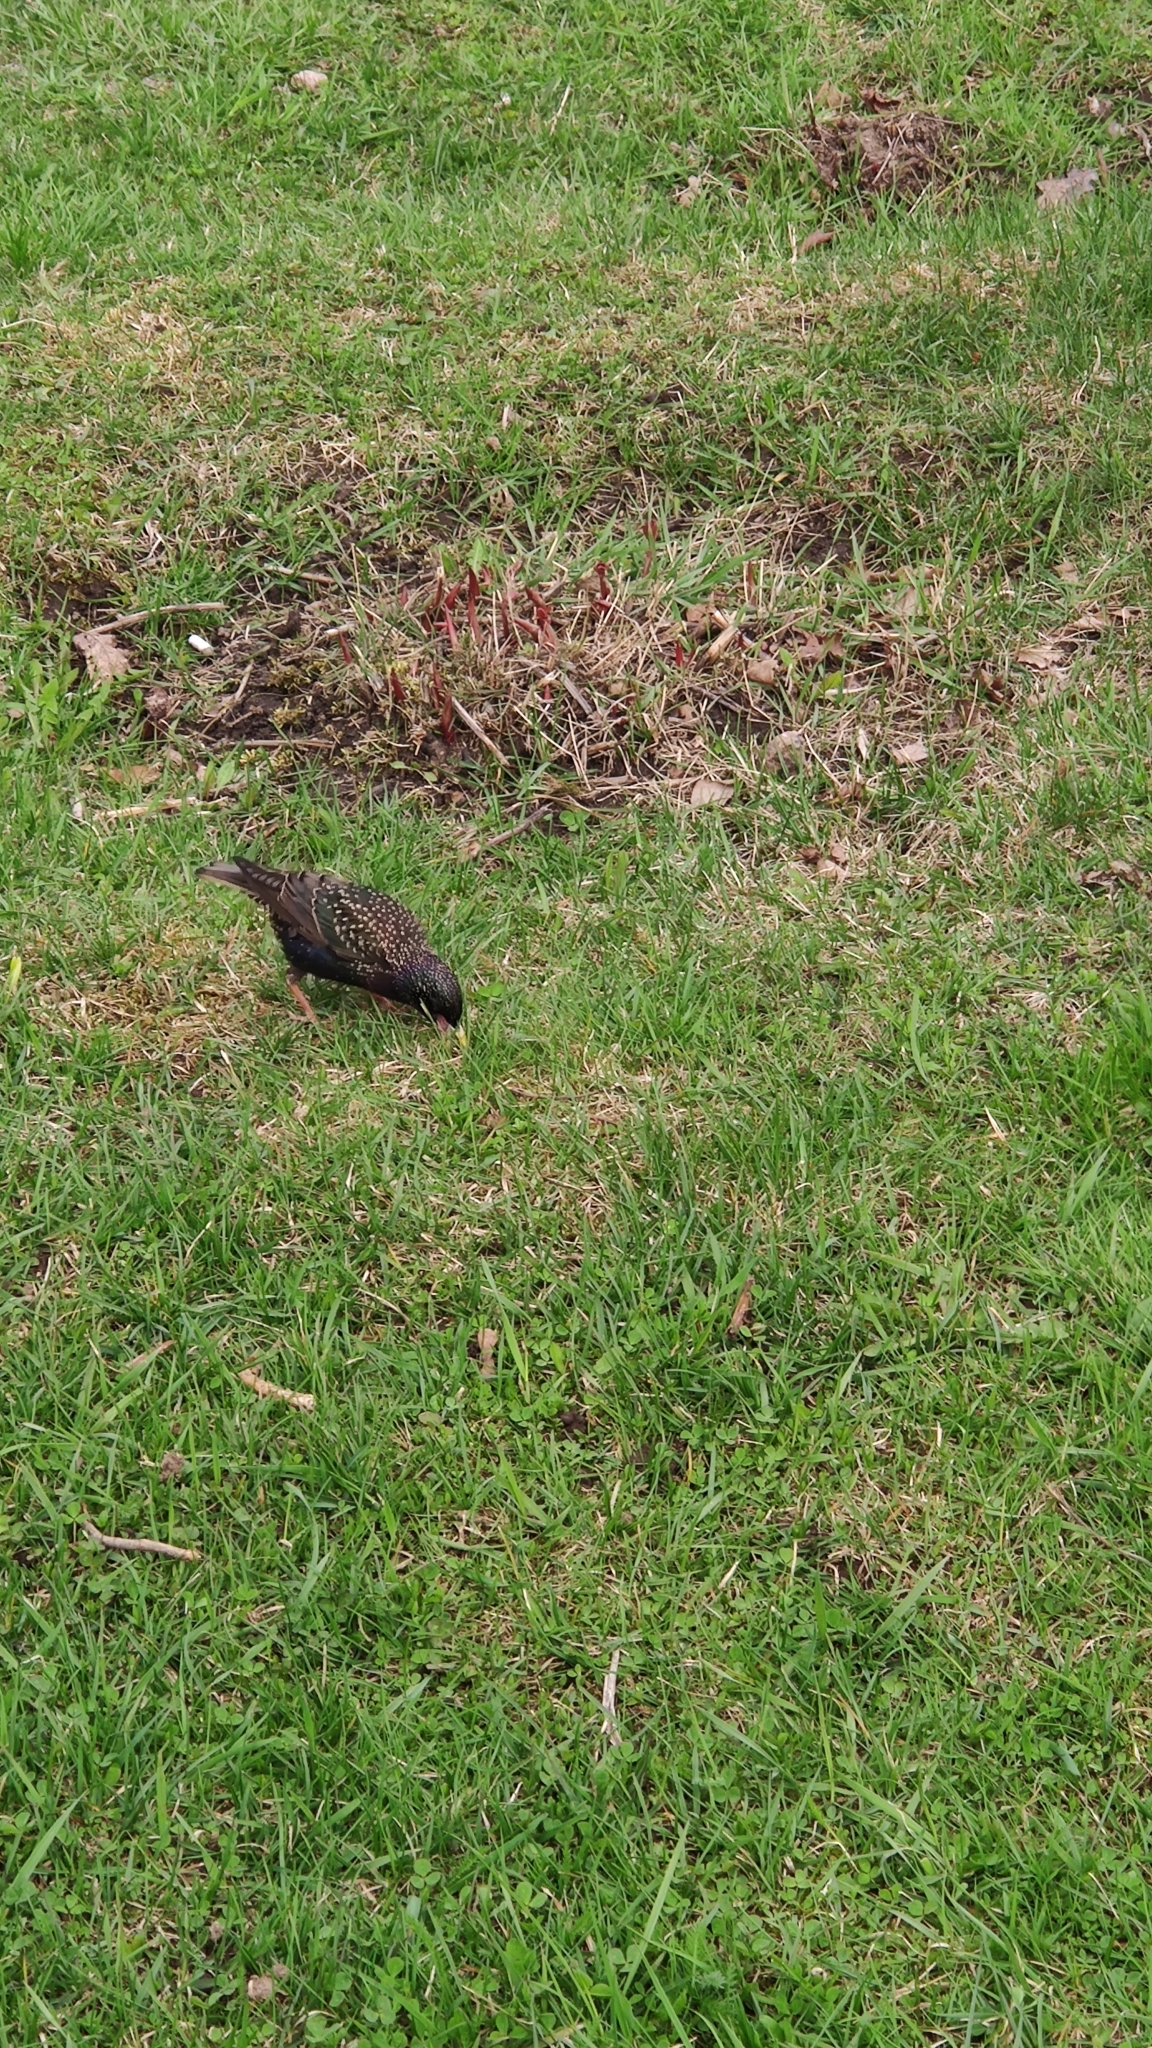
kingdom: Animalia
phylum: Chordata
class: Aves
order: Passeriformes
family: Sturnidae
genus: Sturnus
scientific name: Sturnus vulgaris
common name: Common starling
